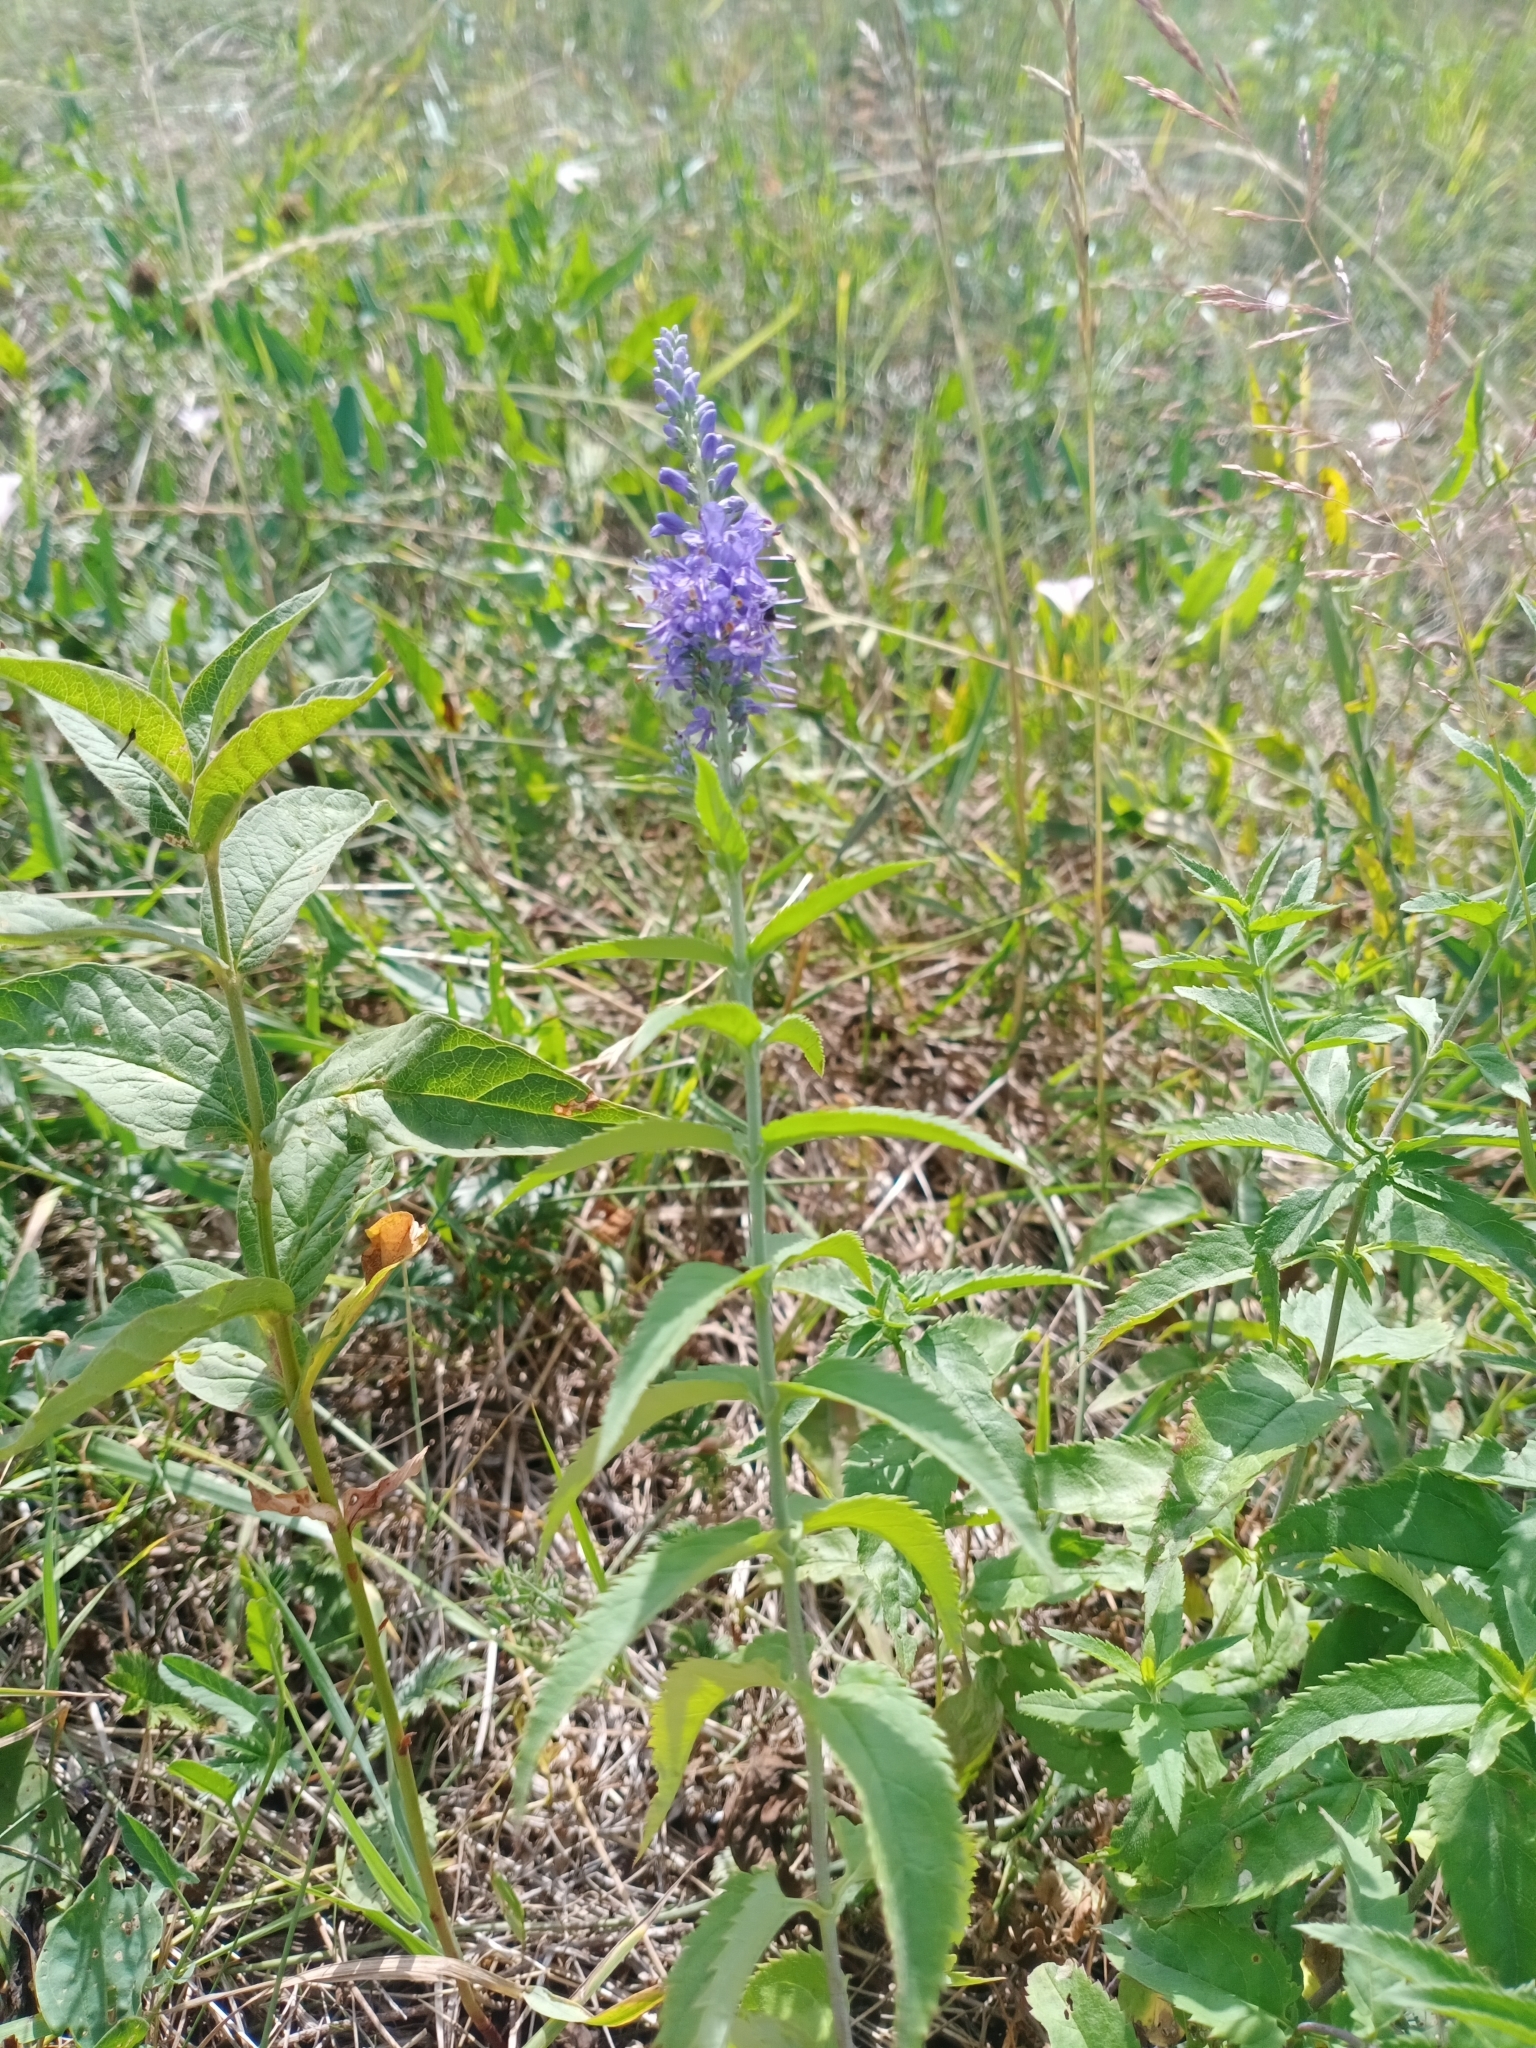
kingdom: Plantae
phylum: Tracheophyta
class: Magnoliopsida
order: Lamiales
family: Plantaginaceae
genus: Veronica
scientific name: Veronica longifolia
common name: Garden speedwell
